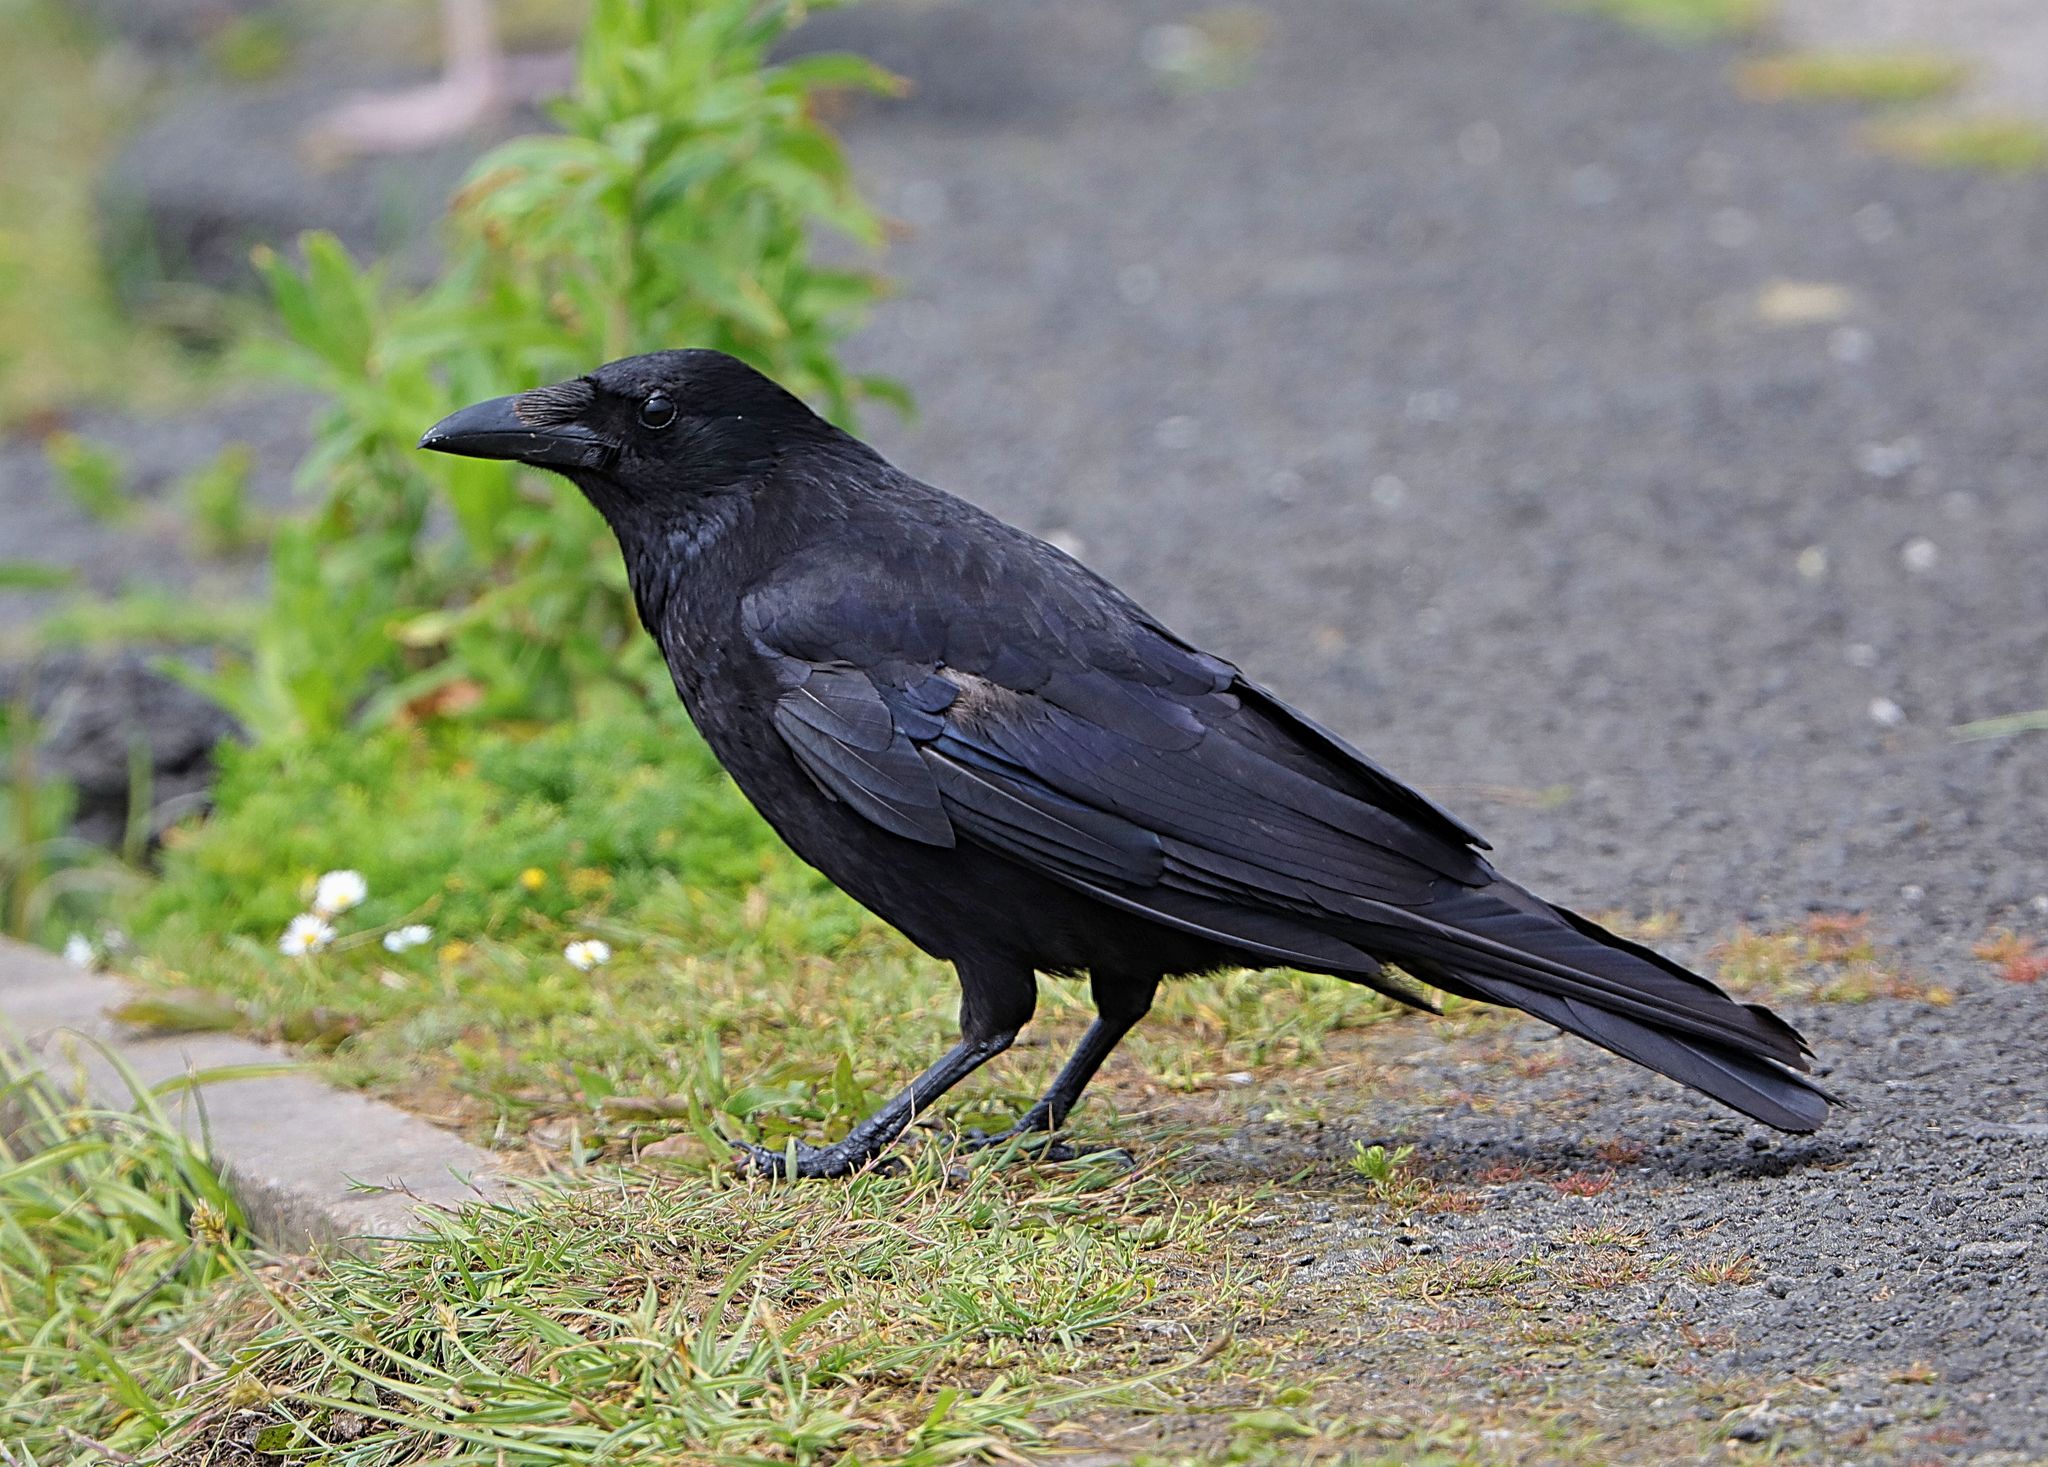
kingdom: Animalia
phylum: Chordata
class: Aves
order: Passeriformes
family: Corvidae
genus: Corvus
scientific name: Corvus corone
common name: Carrion crow
